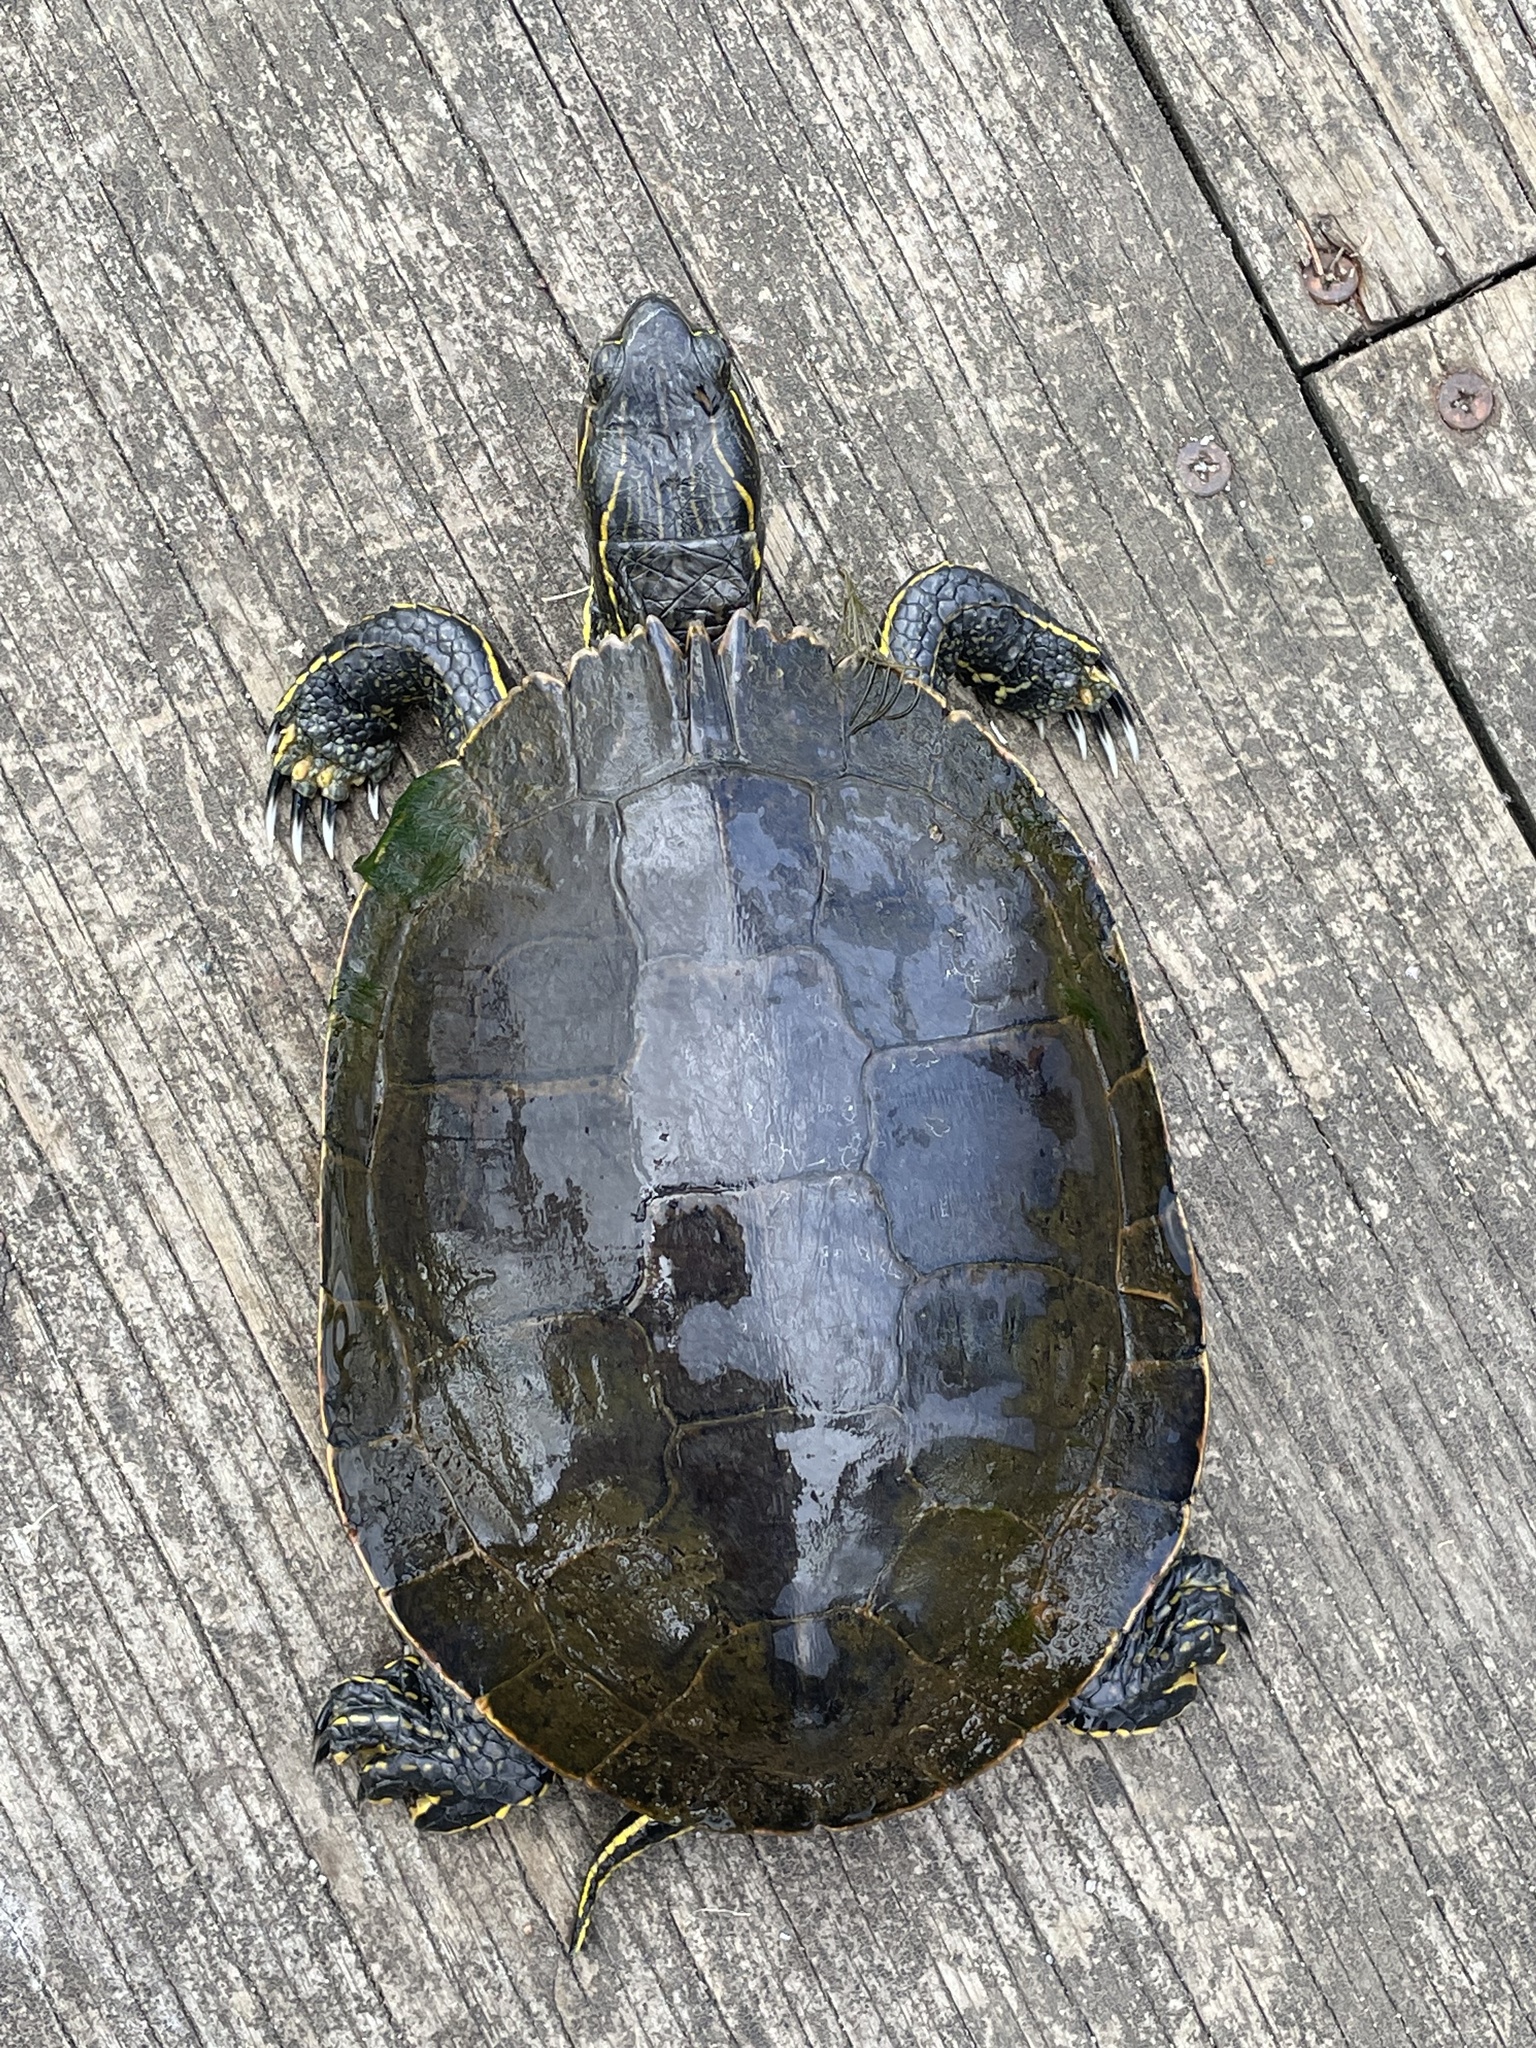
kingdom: Animalia
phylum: Chordata
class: Testudines
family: Emydidae
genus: Chrysemys
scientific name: Chrysemys picta
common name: Painted turtle
